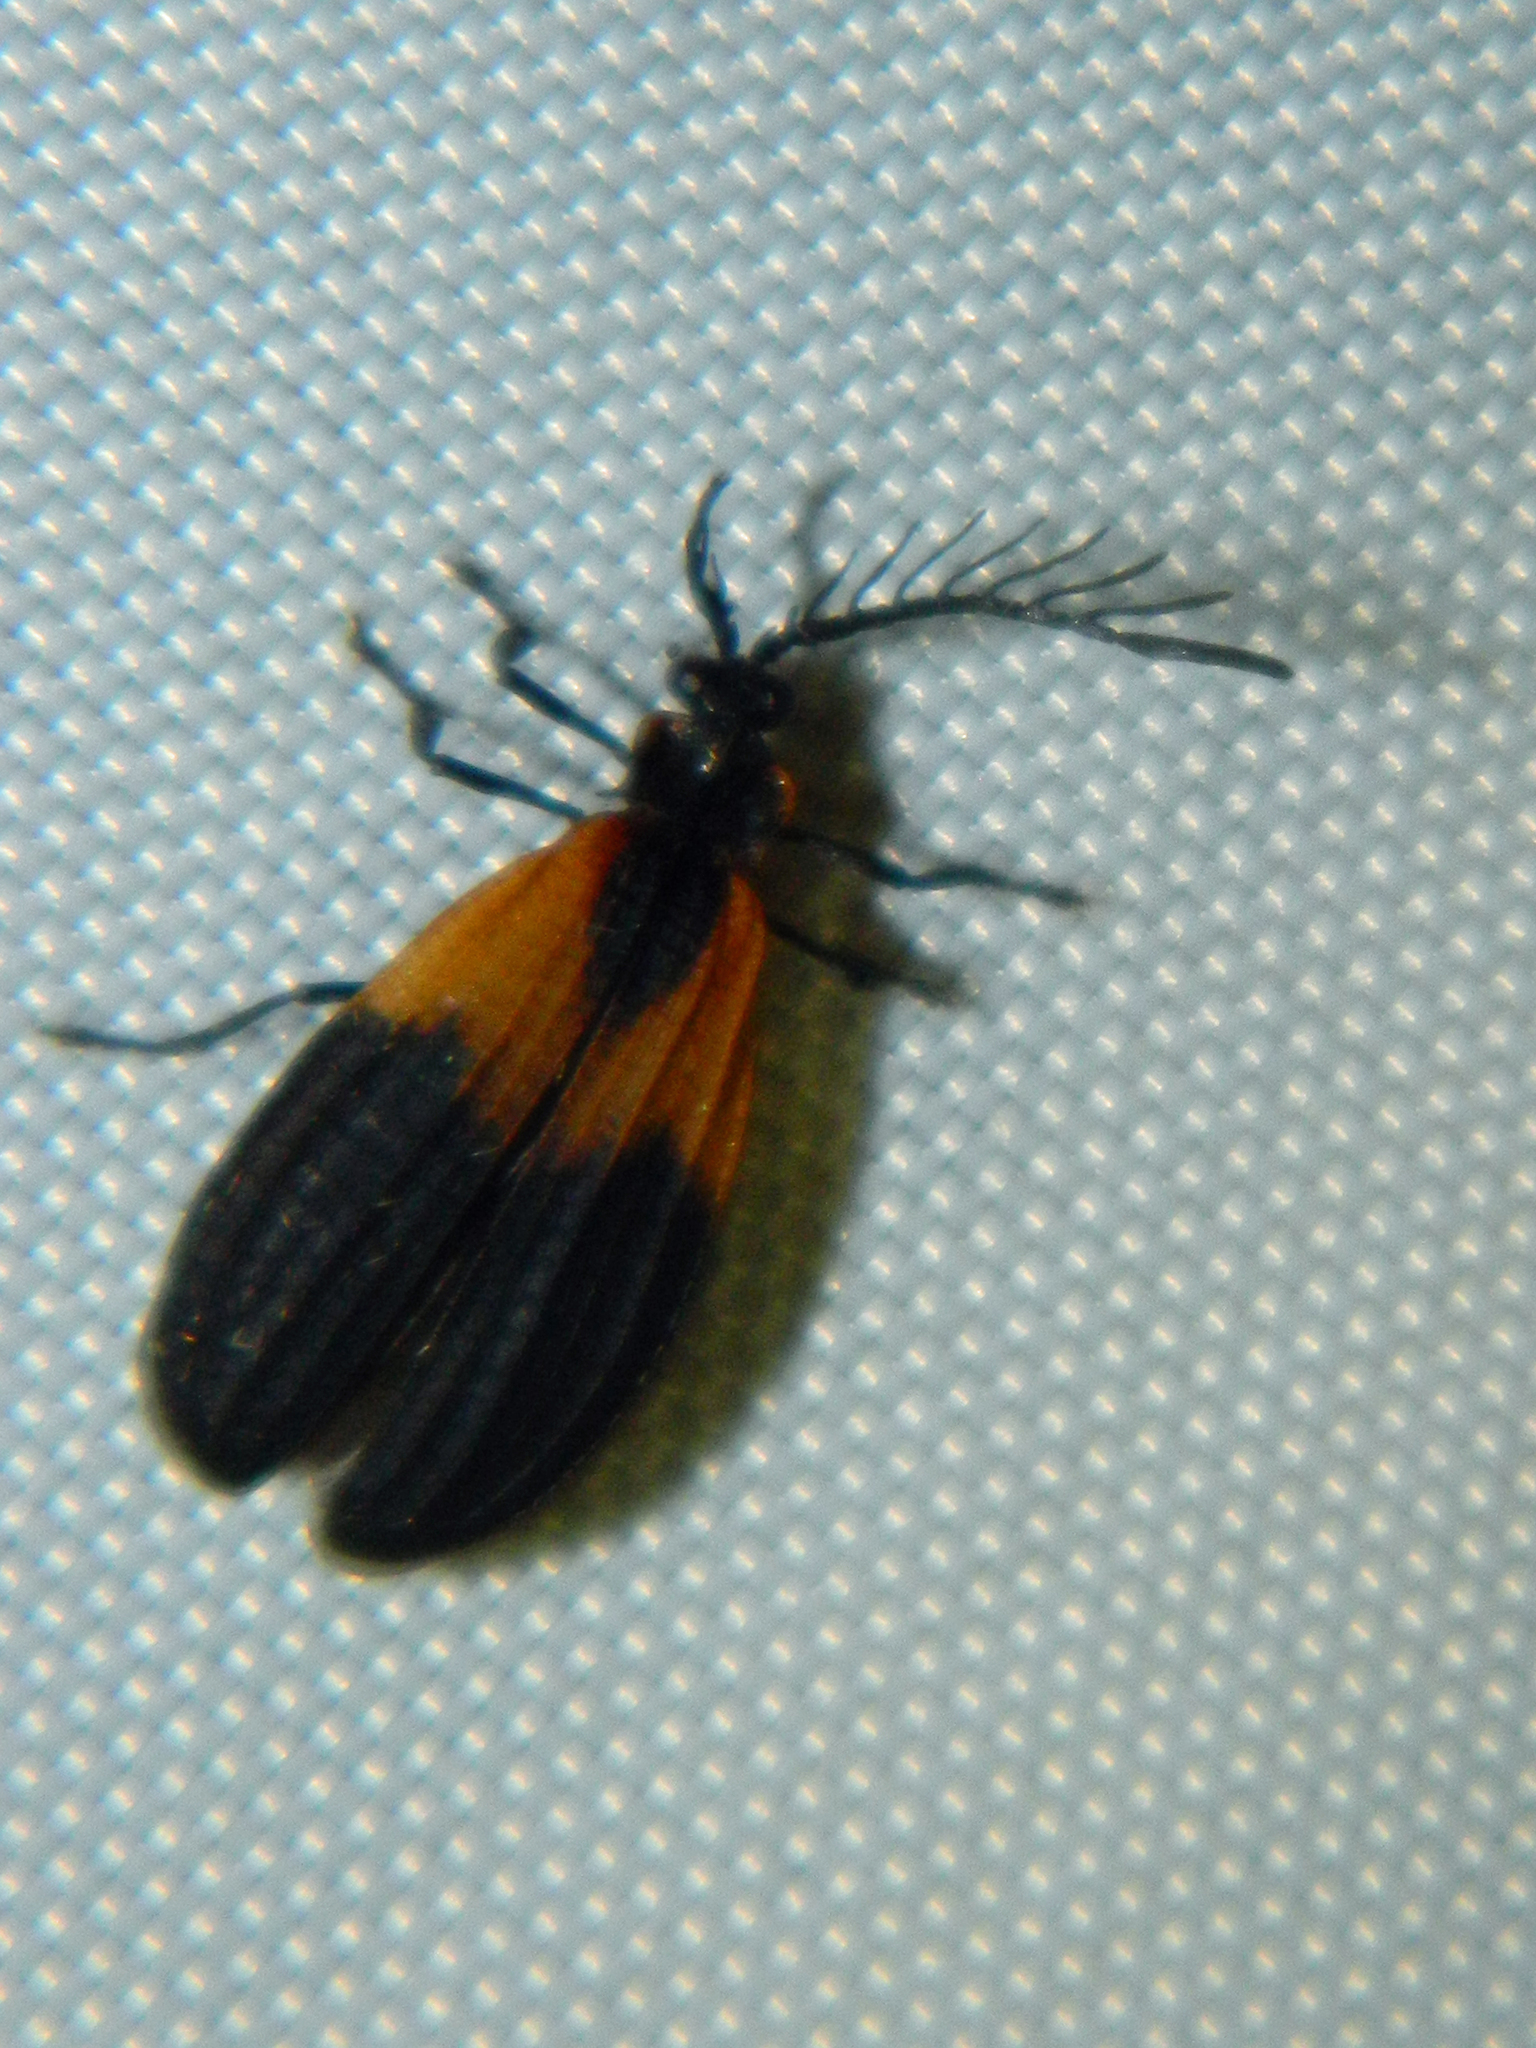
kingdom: Animalia
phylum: Arthropoda
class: Insecta
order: Coleoptera
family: Lycidae
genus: Caenia
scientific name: Caenia dimidiata
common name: Terminal net-winged beetle
